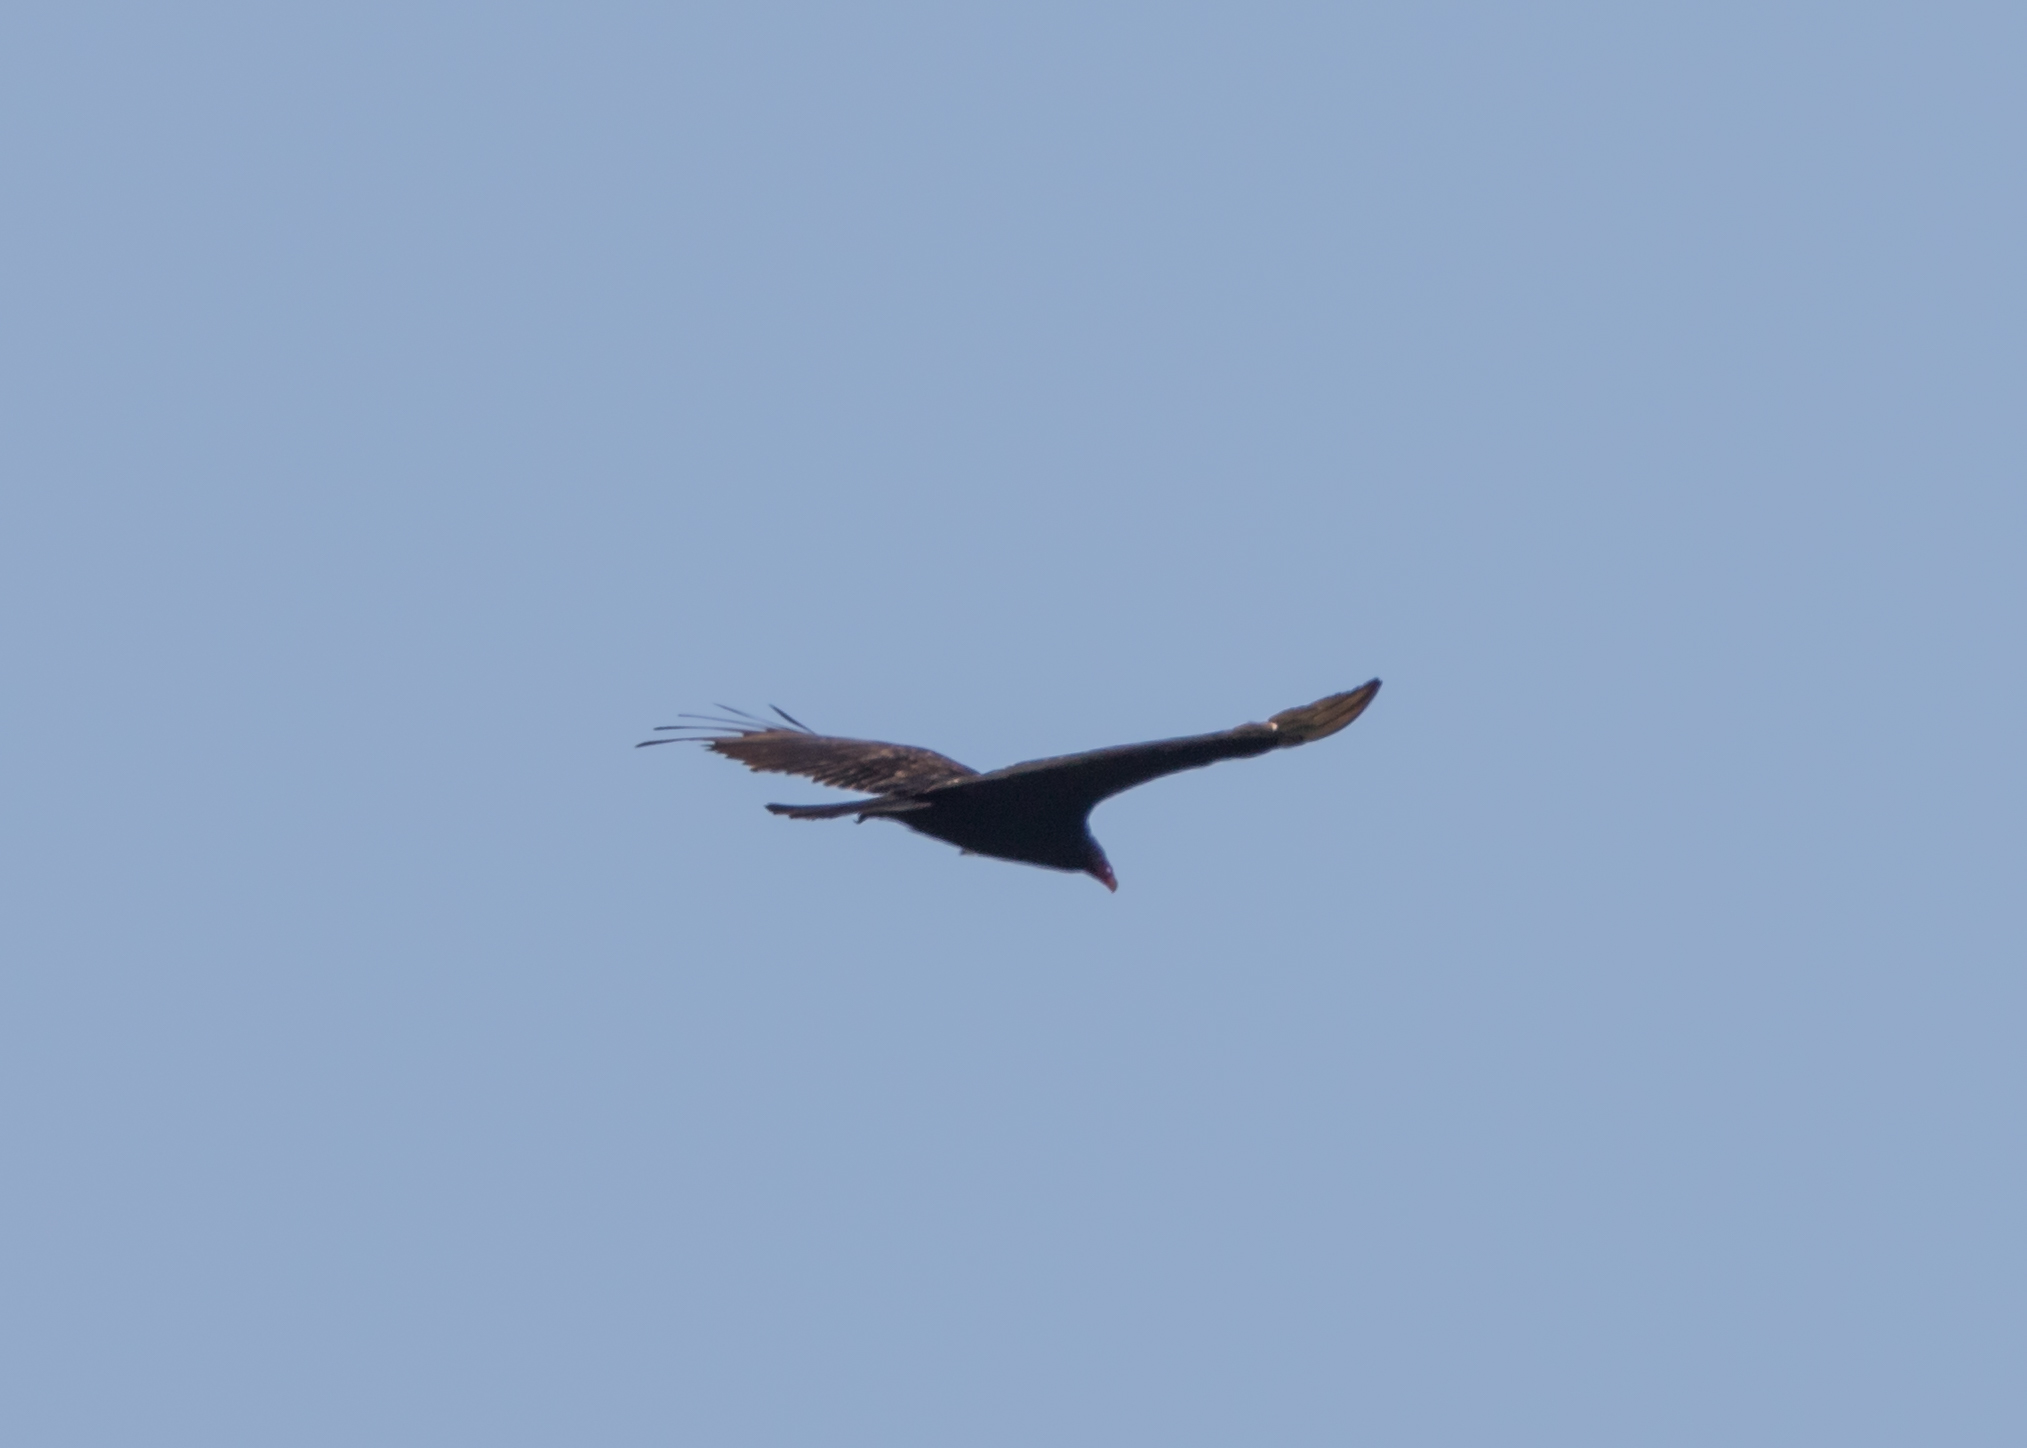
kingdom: Animalia
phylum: Chordata
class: Aves
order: Accipitriformes
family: Cathartidae
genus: Cathartes
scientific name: Cathartes aura
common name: Turkey vulture
